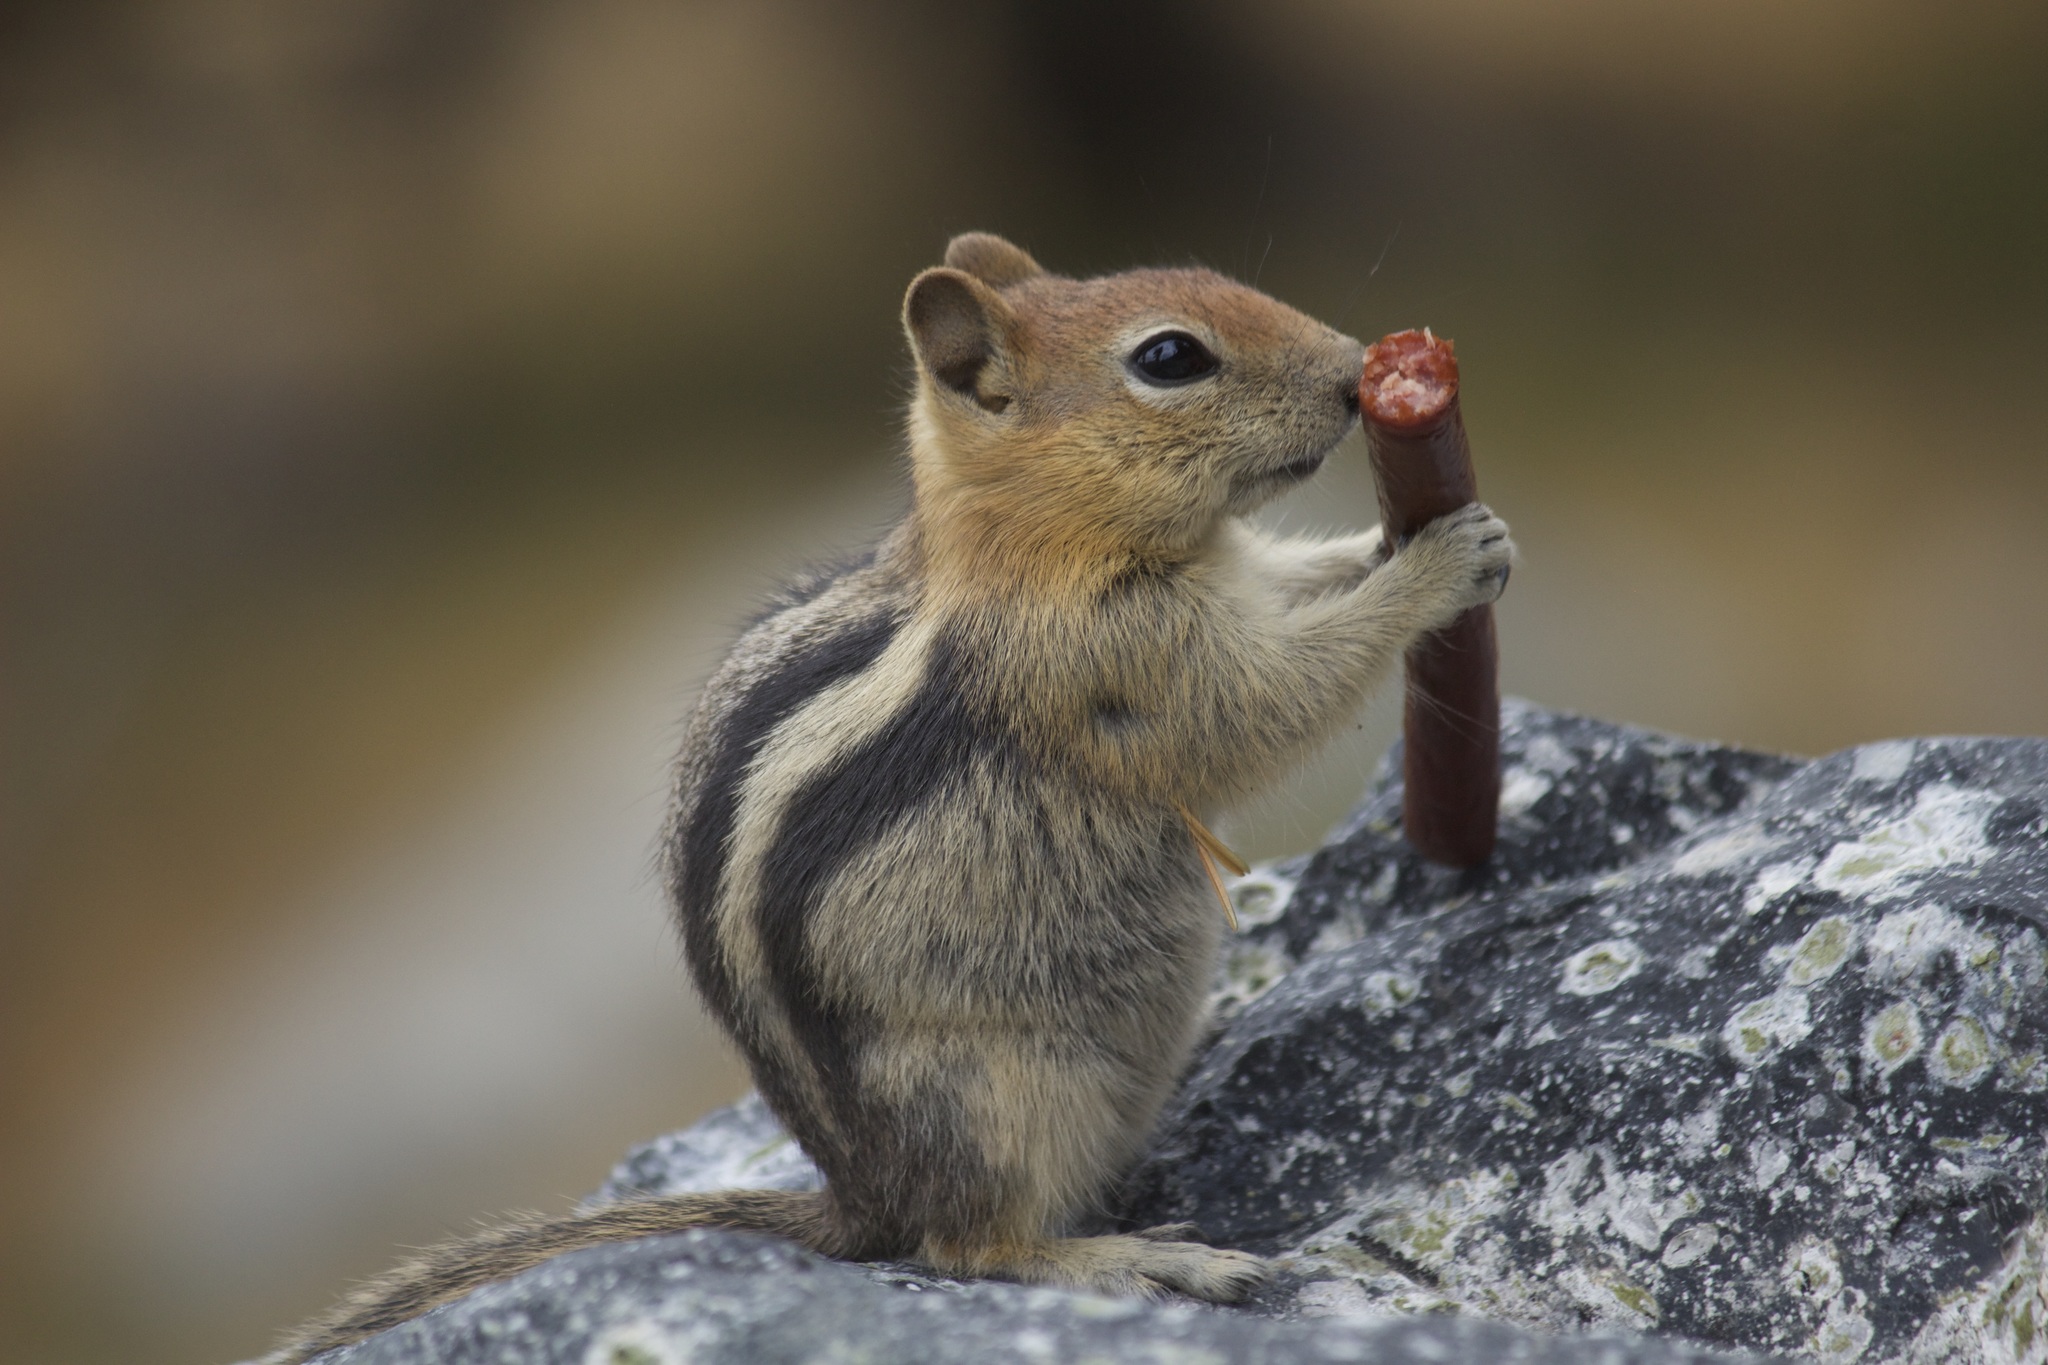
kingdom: Animalia
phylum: Chordata
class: Mammalia
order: Rodentia
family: Sciuridae
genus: Callospermophilus
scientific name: Callospermophilus lateralis
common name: Golden-mantled ground squirrel
